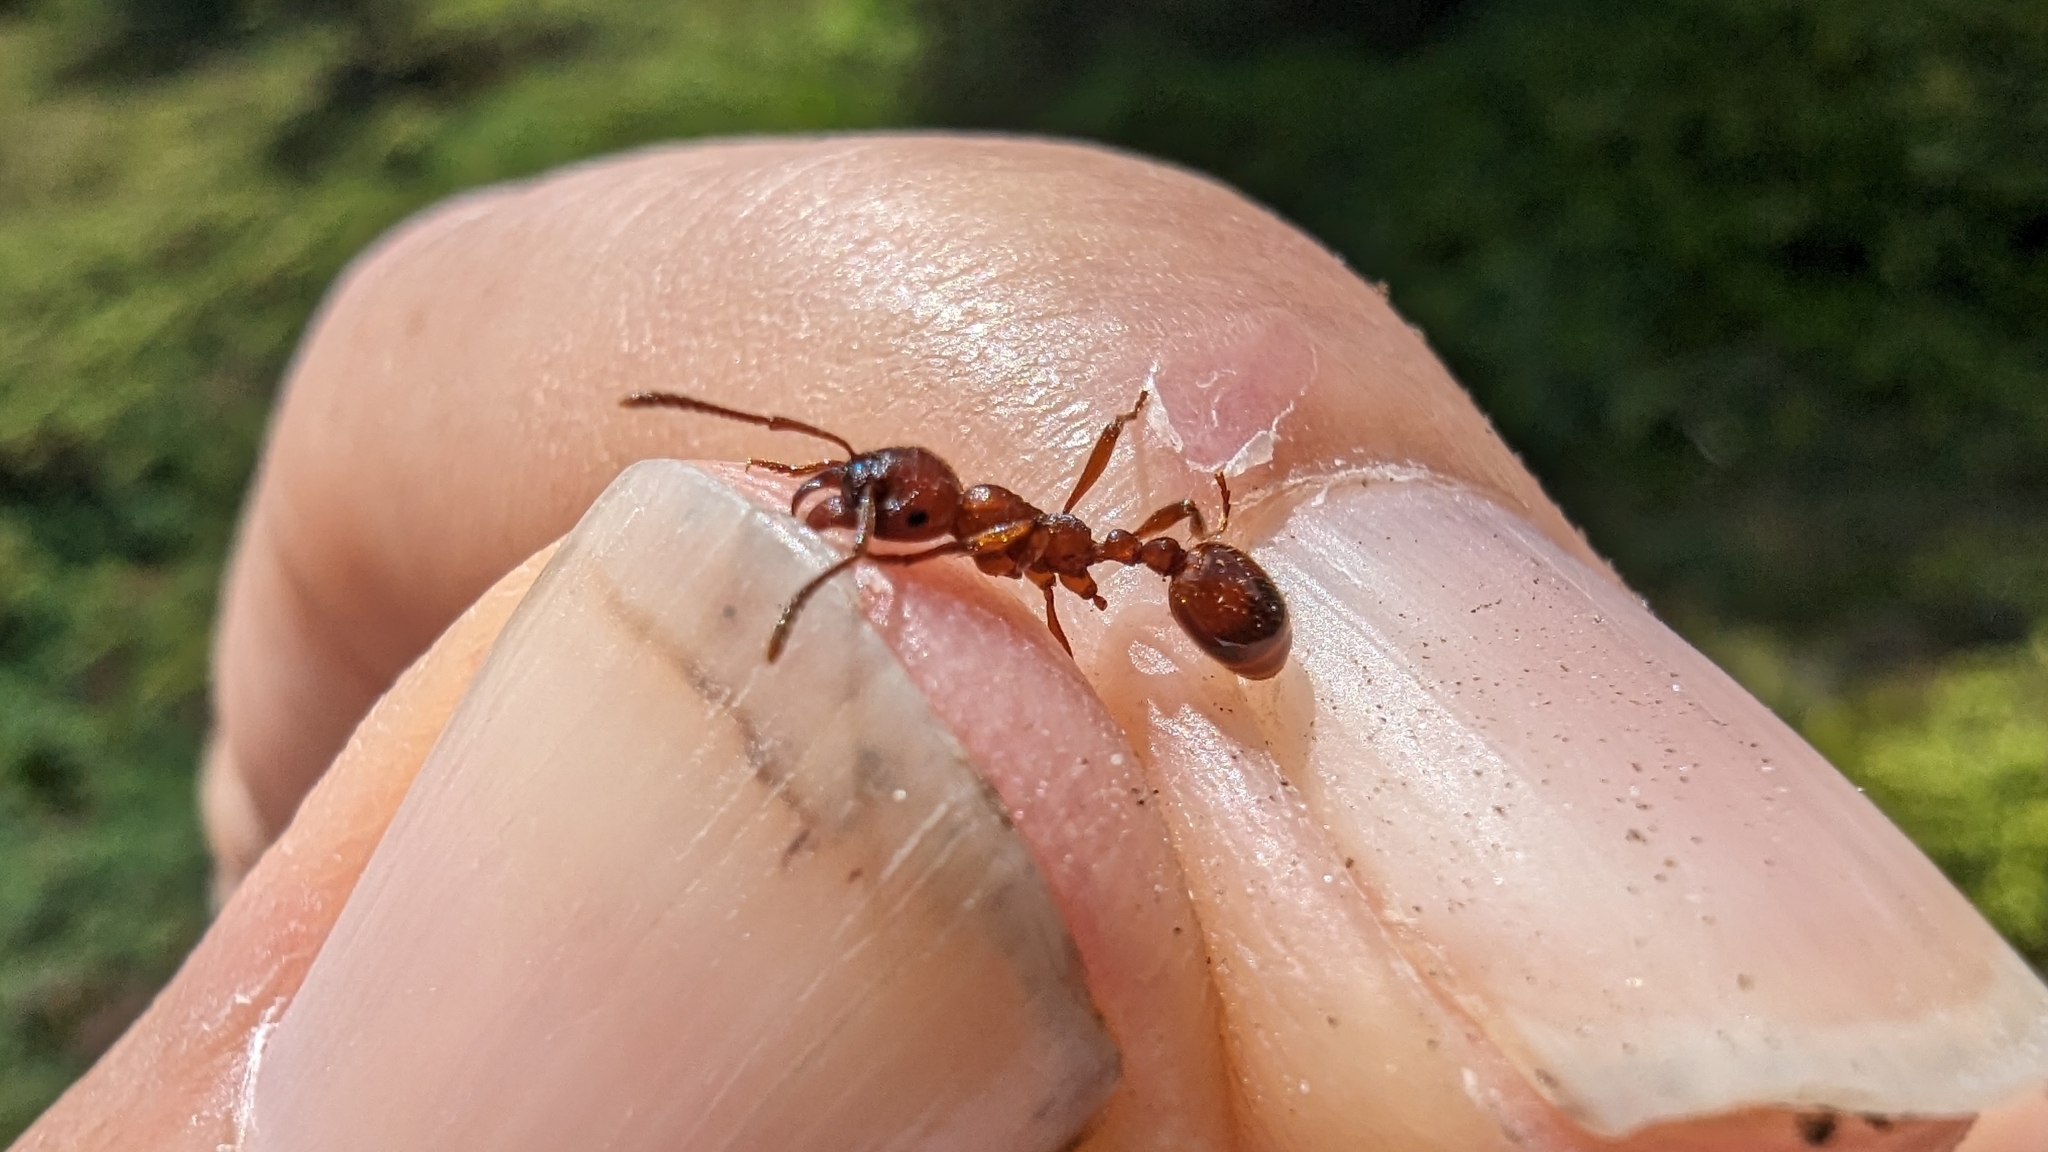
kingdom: Animalia
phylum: Arthropoda
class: Insecta
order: Hymenoptera
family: Formicidae
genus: Manica
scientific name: Manica rubida
